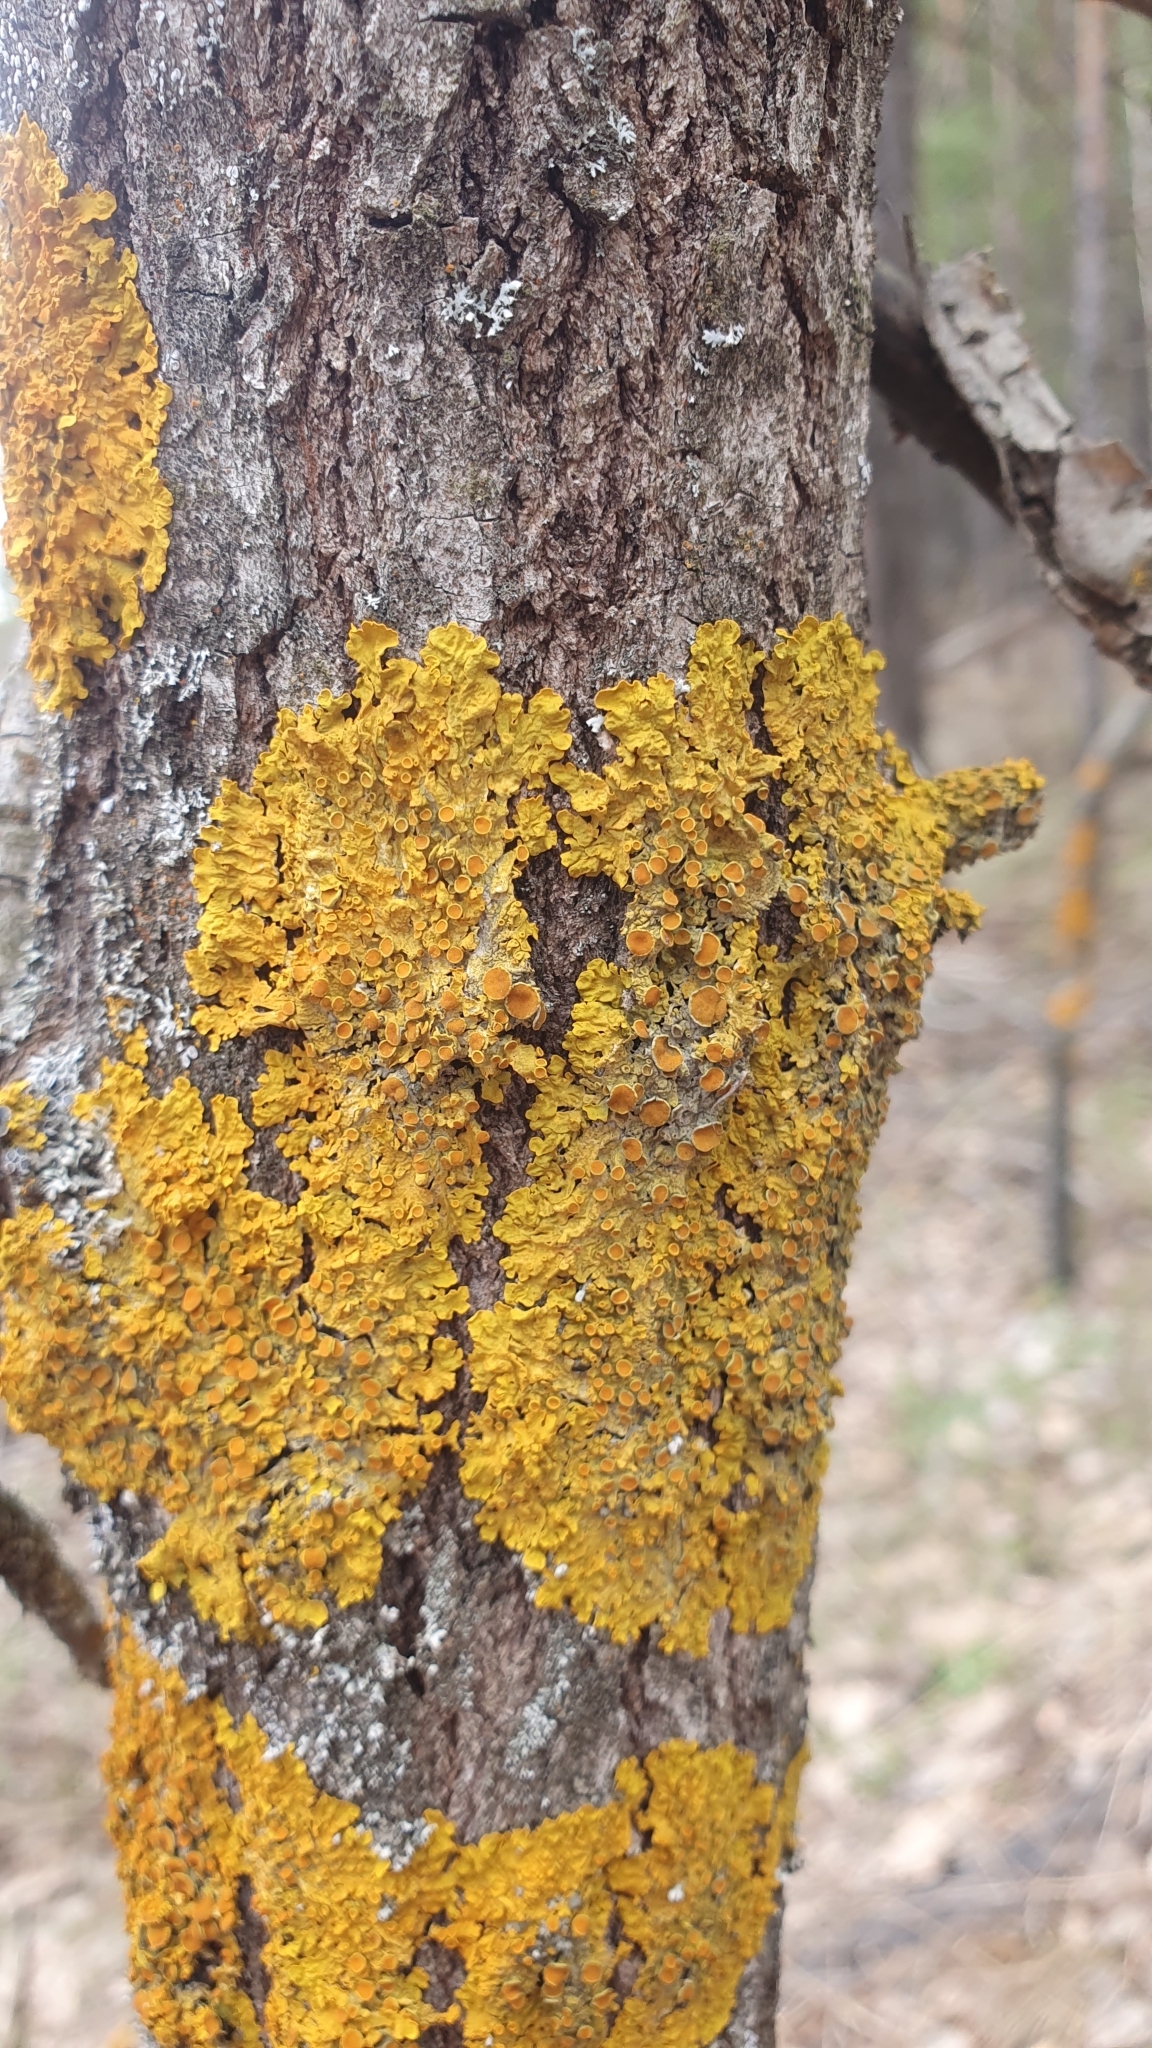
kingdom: Fungi
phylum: Ascomycota
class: Lecanoromycetes
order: Teloschistales
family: Teloschistaceae
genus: Xanthoria
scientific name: Xanthoria parietina
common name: Common orange lichen
